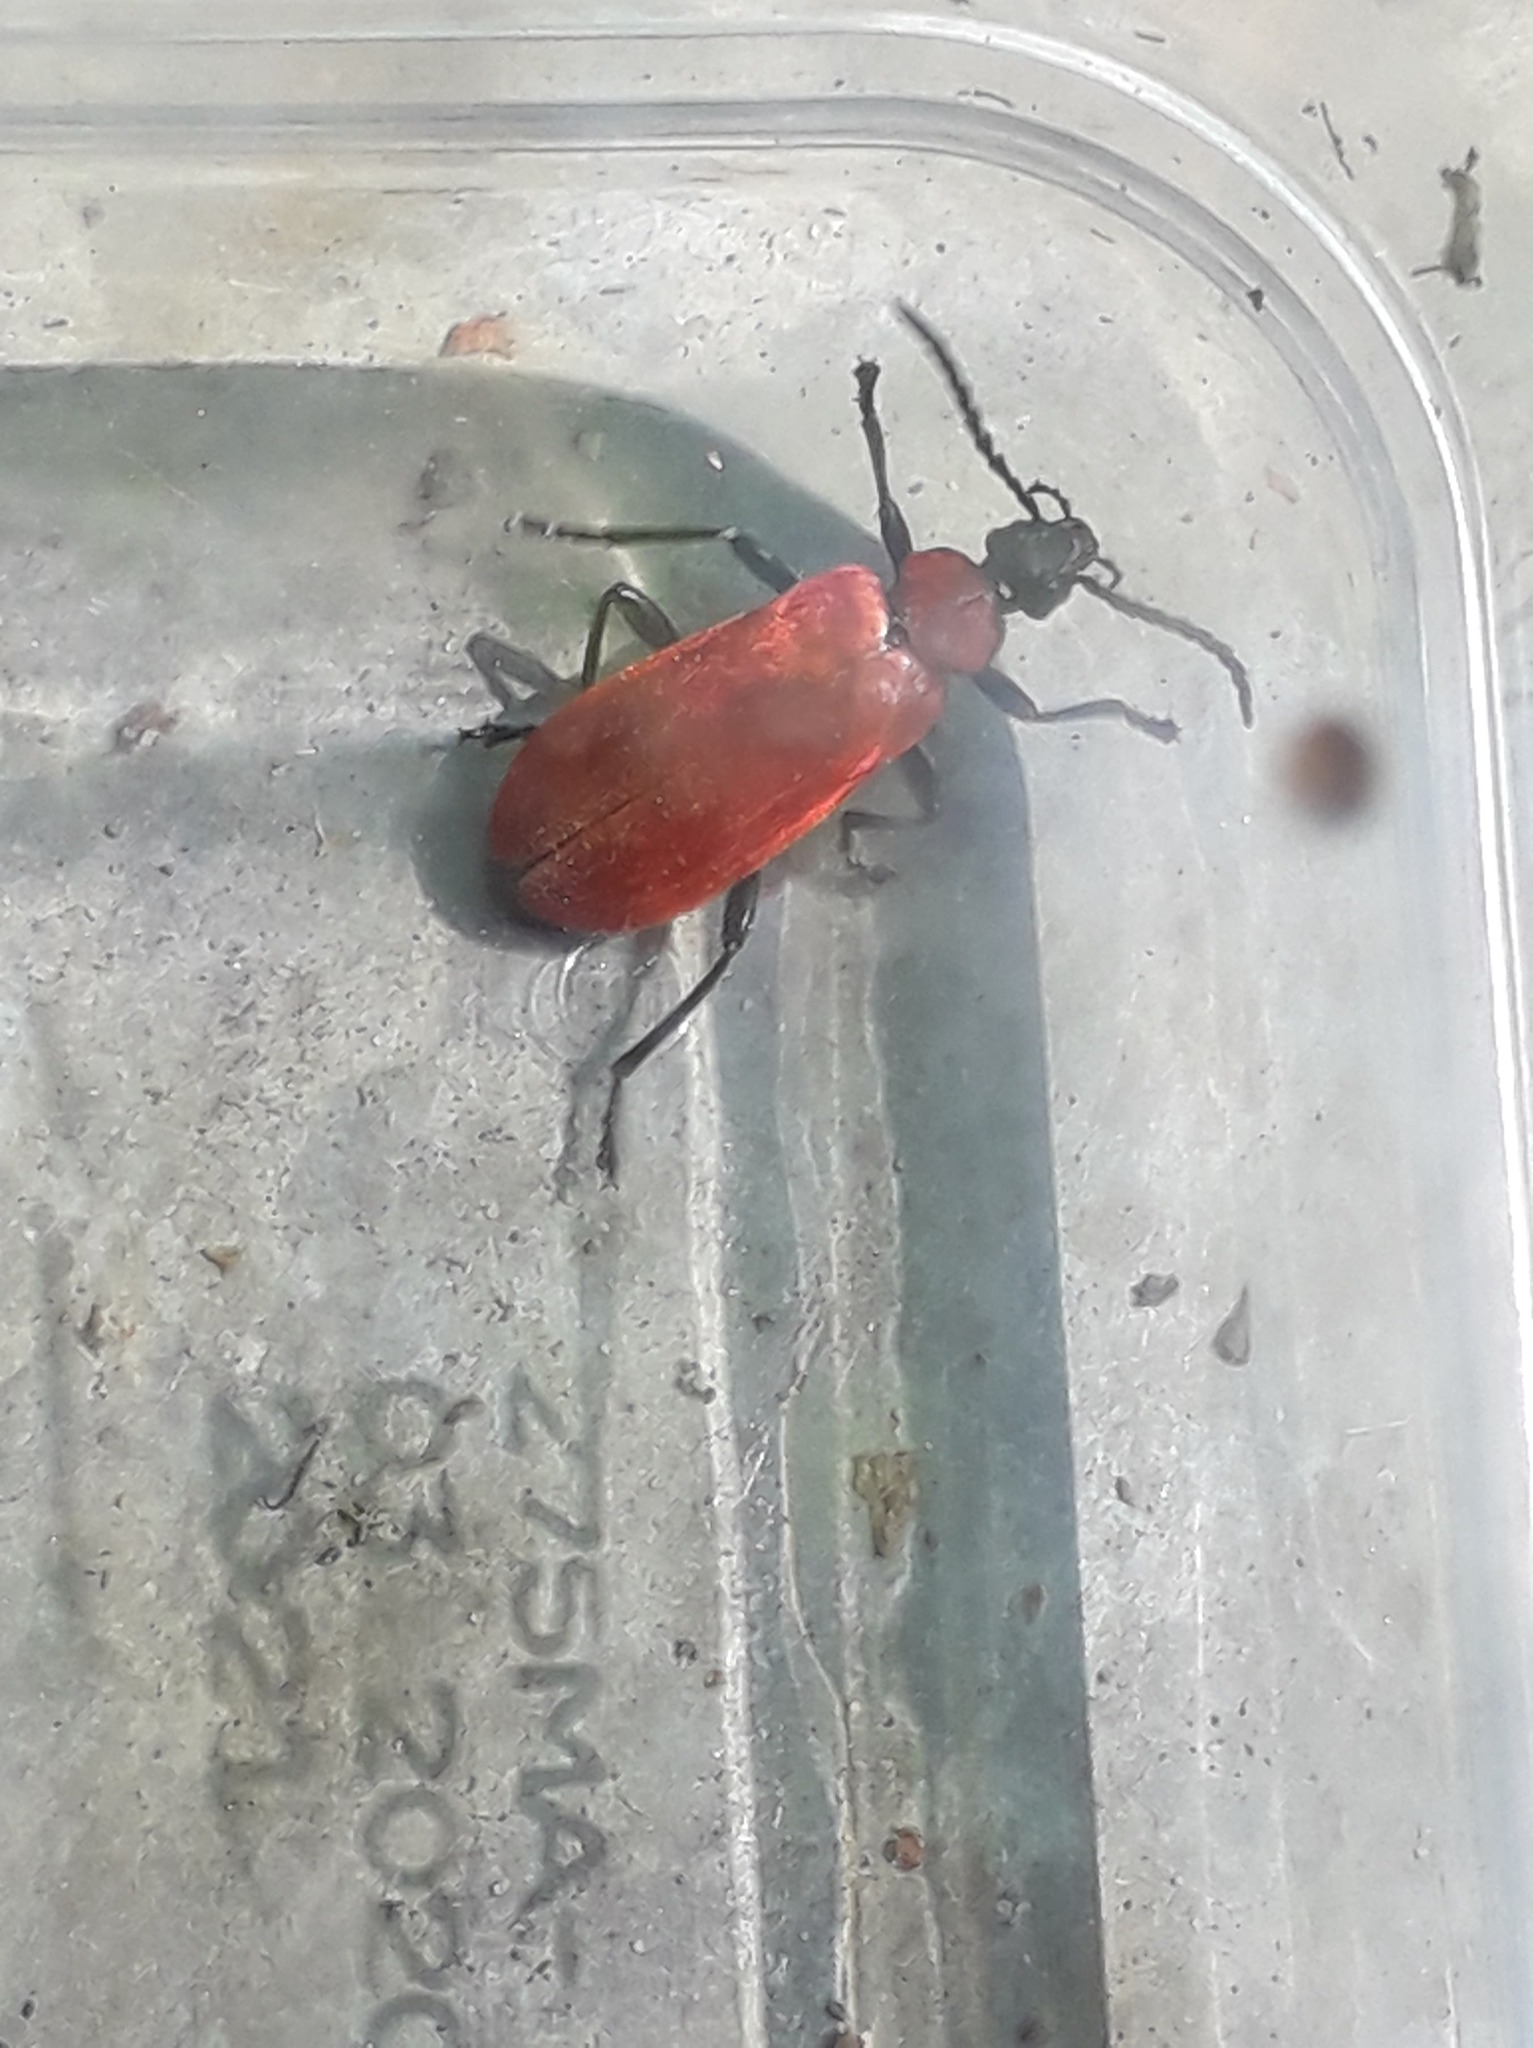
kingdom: Animalia
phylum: Arthropoda
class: Insecta
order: Coleoptera
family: Pyrochroidae
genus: Pyrochroa
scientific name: Pyrochroa coccinea
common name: Black-headed cardinal beetle
